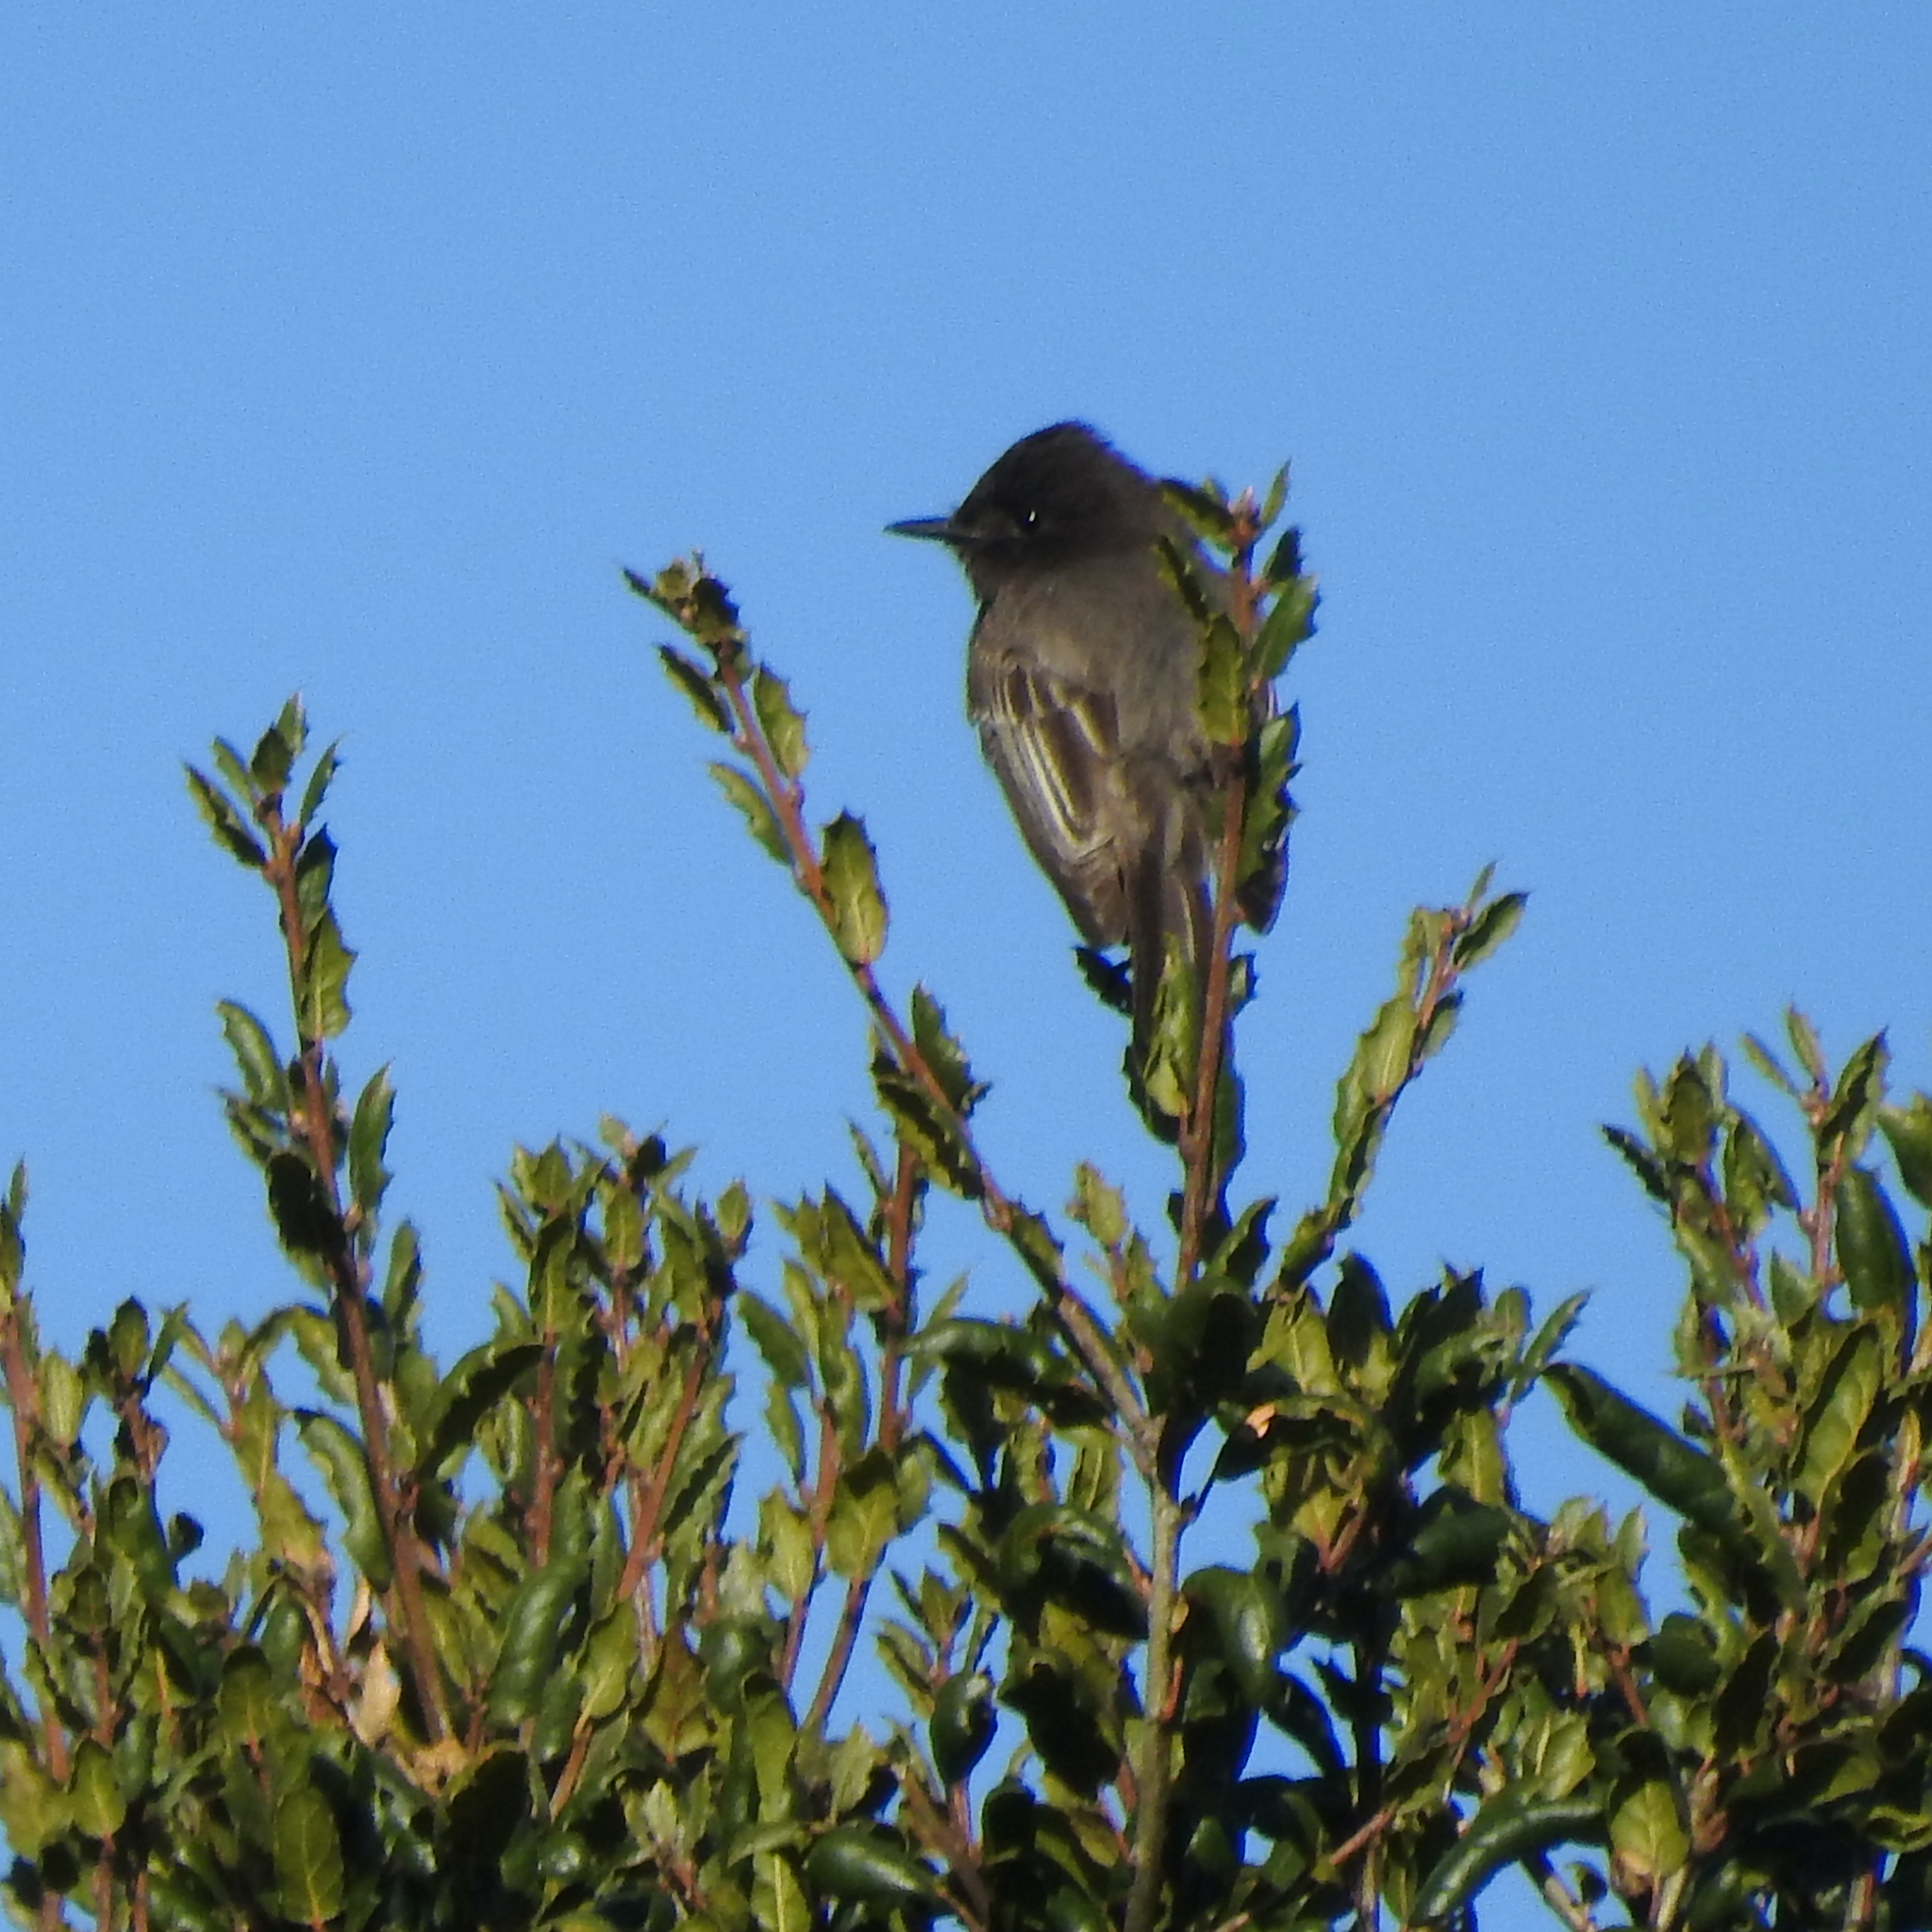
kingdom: Animalia
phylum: Chordata
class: Aves
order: Passeriformes
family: Tyrannidae
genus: Sayornis
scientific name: Sayornis nigricans
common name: Black phoebe
